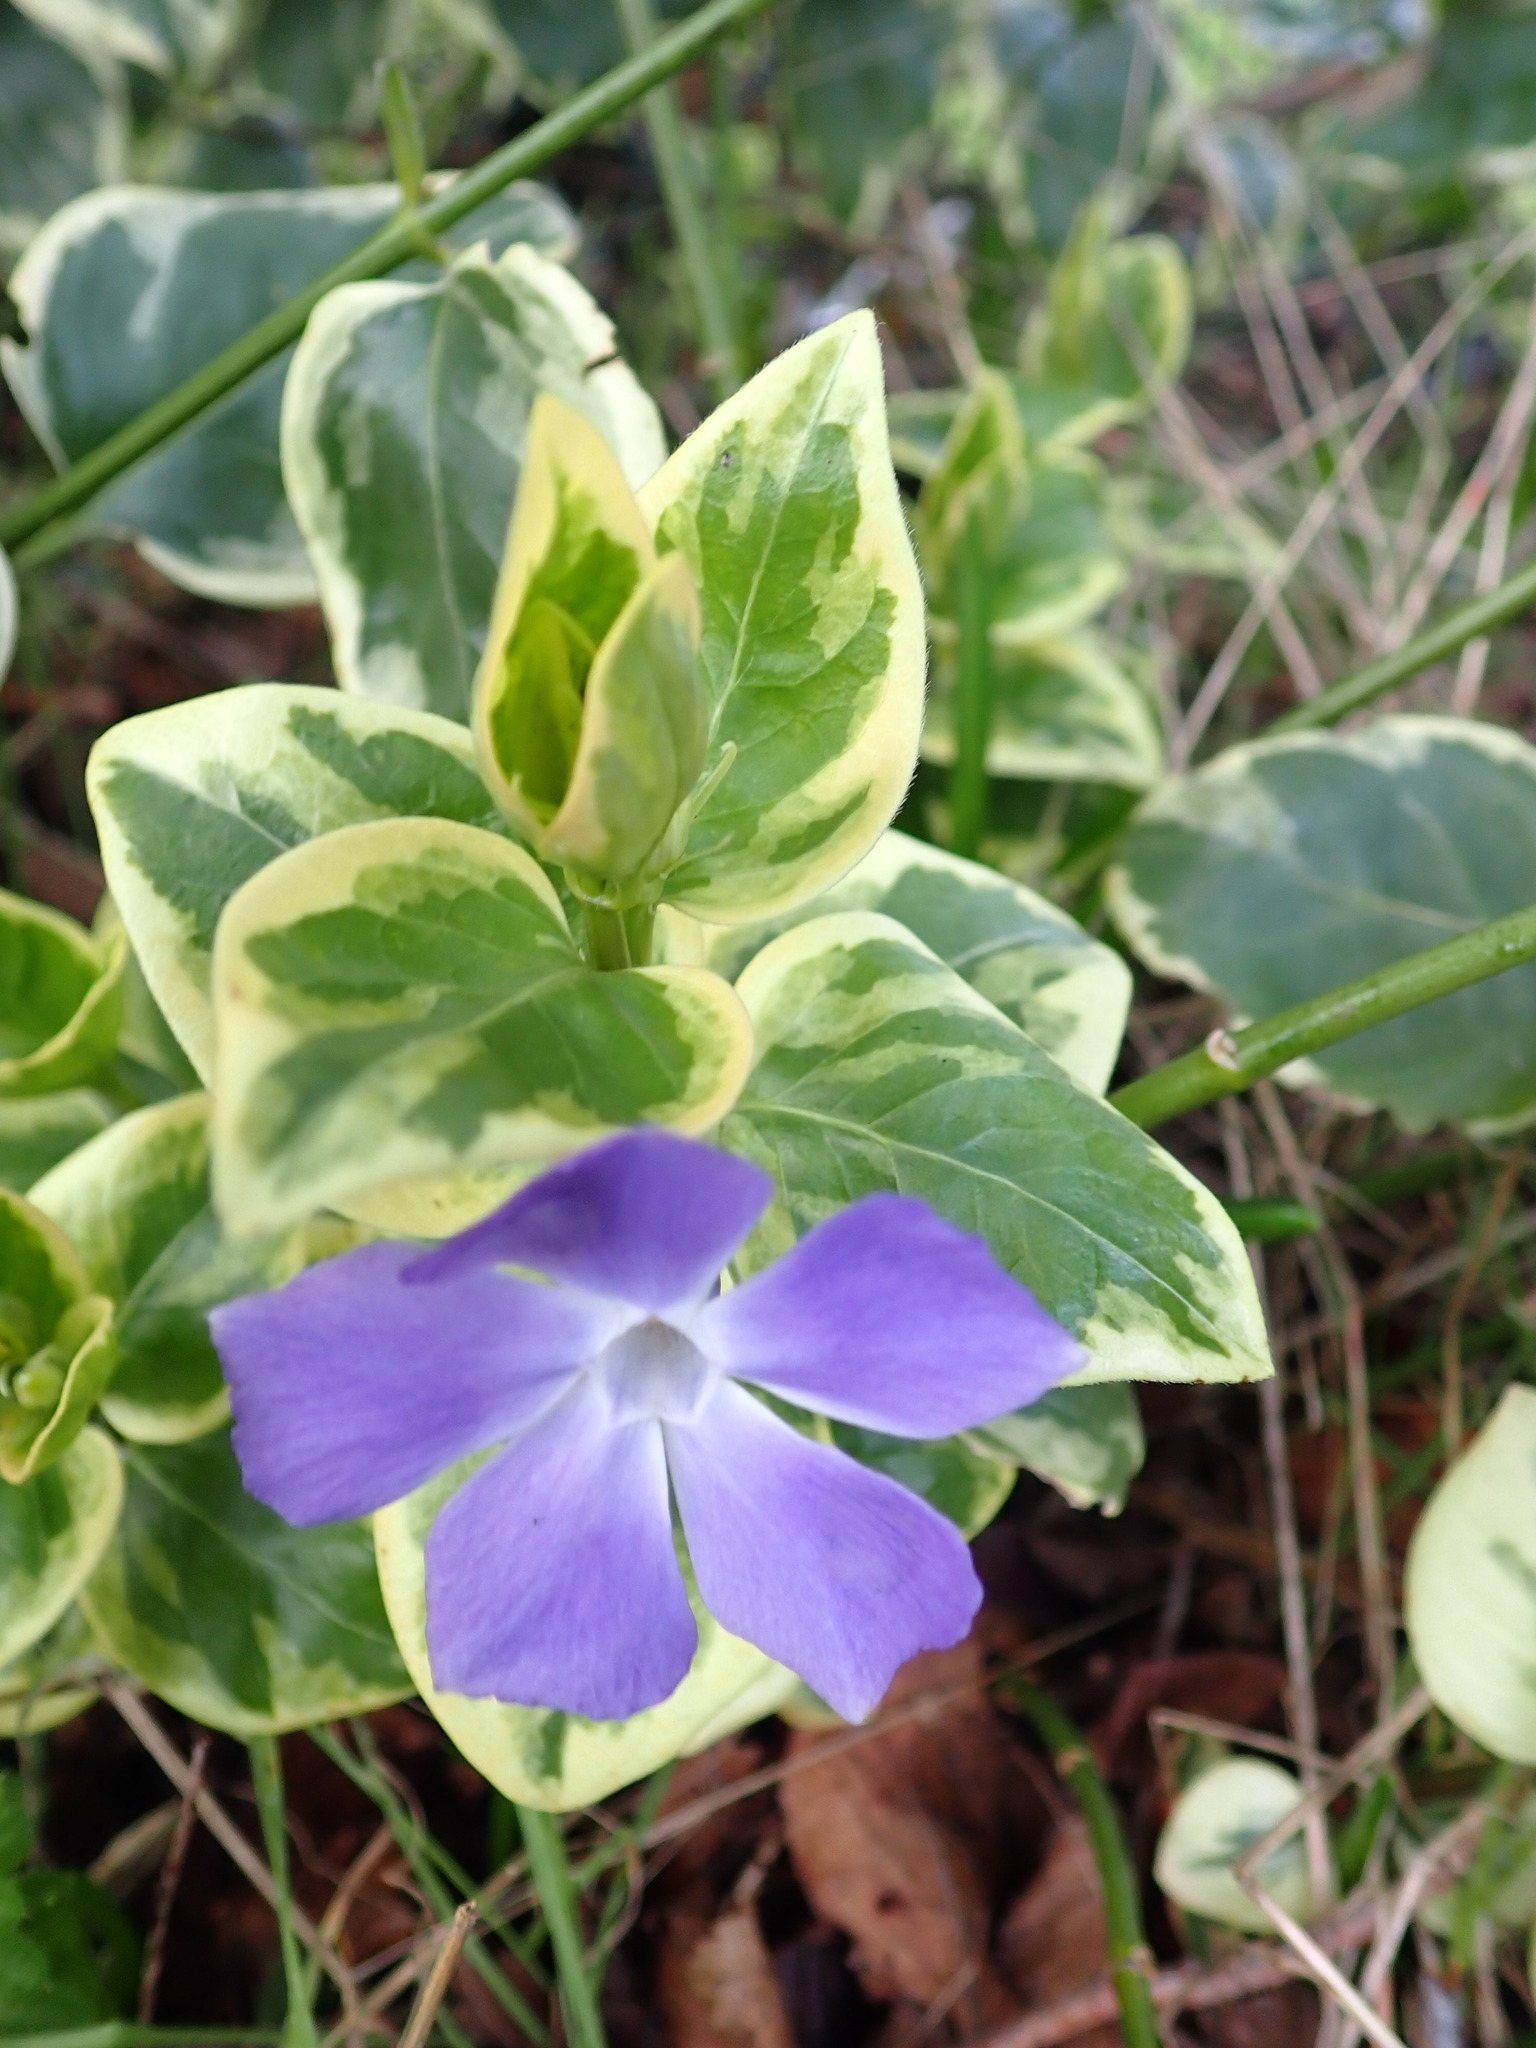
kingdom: Plantae
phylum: Tracheophyta
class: Magnoliopsida
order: Gentianales
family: Apocynaceae
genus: Vinca
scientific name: Vinca major
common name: Greater periwinkle
